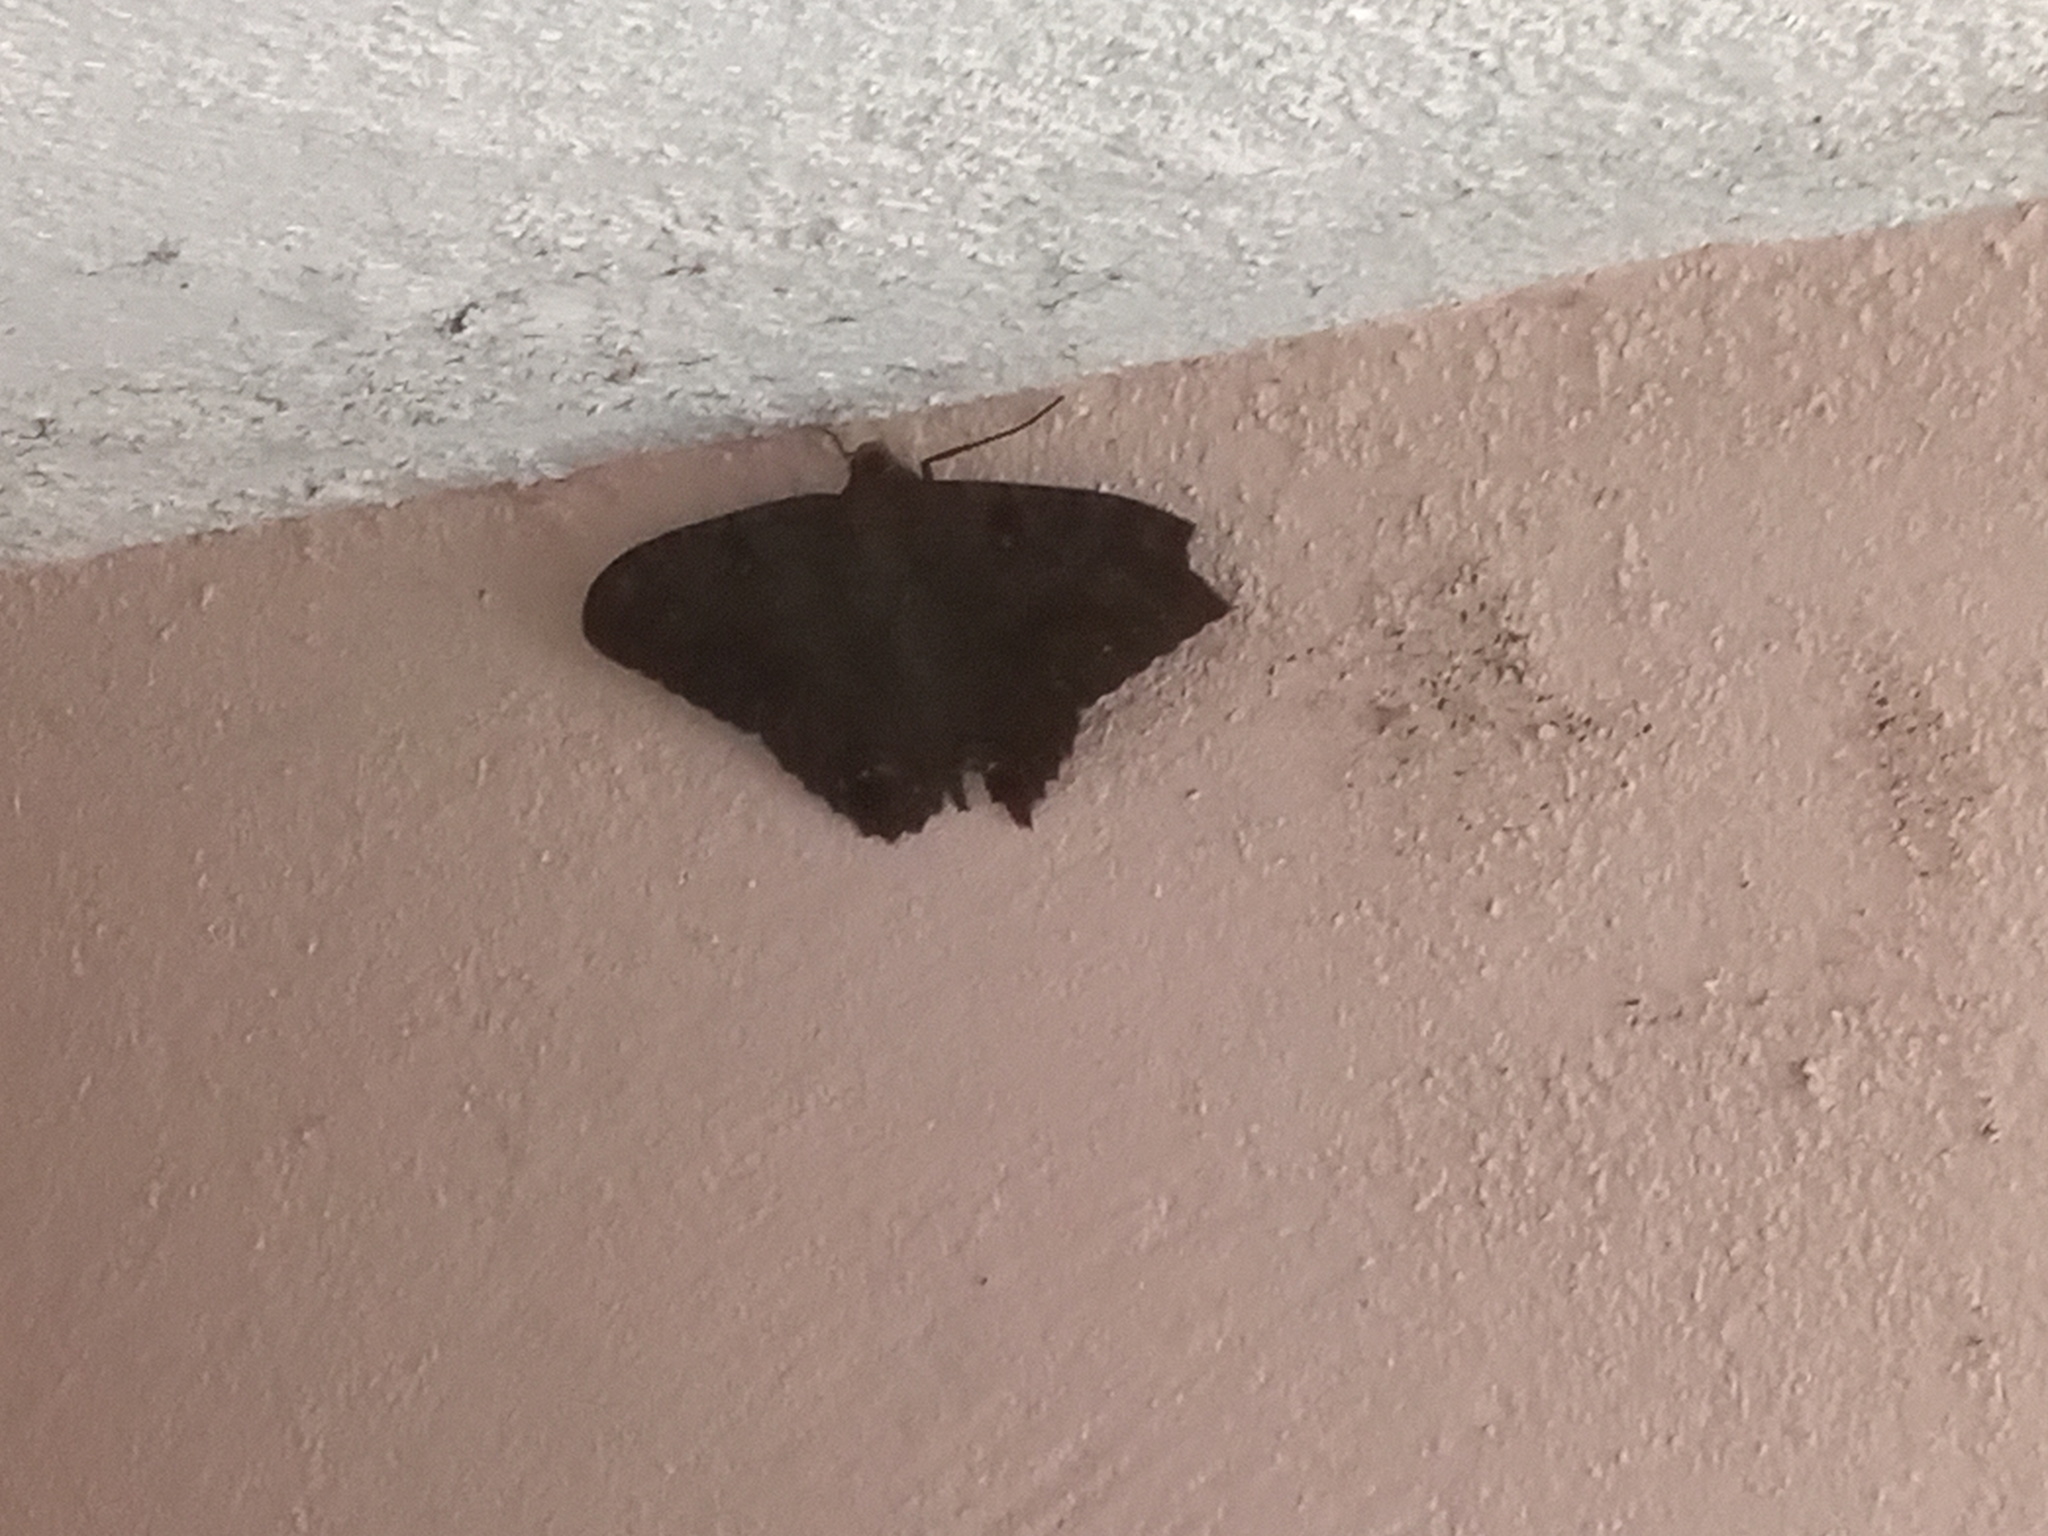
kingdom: Animalia
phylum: Arthropoda
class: Insecta
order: Lepidoptera
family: Erebidae
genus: Ascalapha
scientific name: Ascalapha odorata
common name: Black witch
